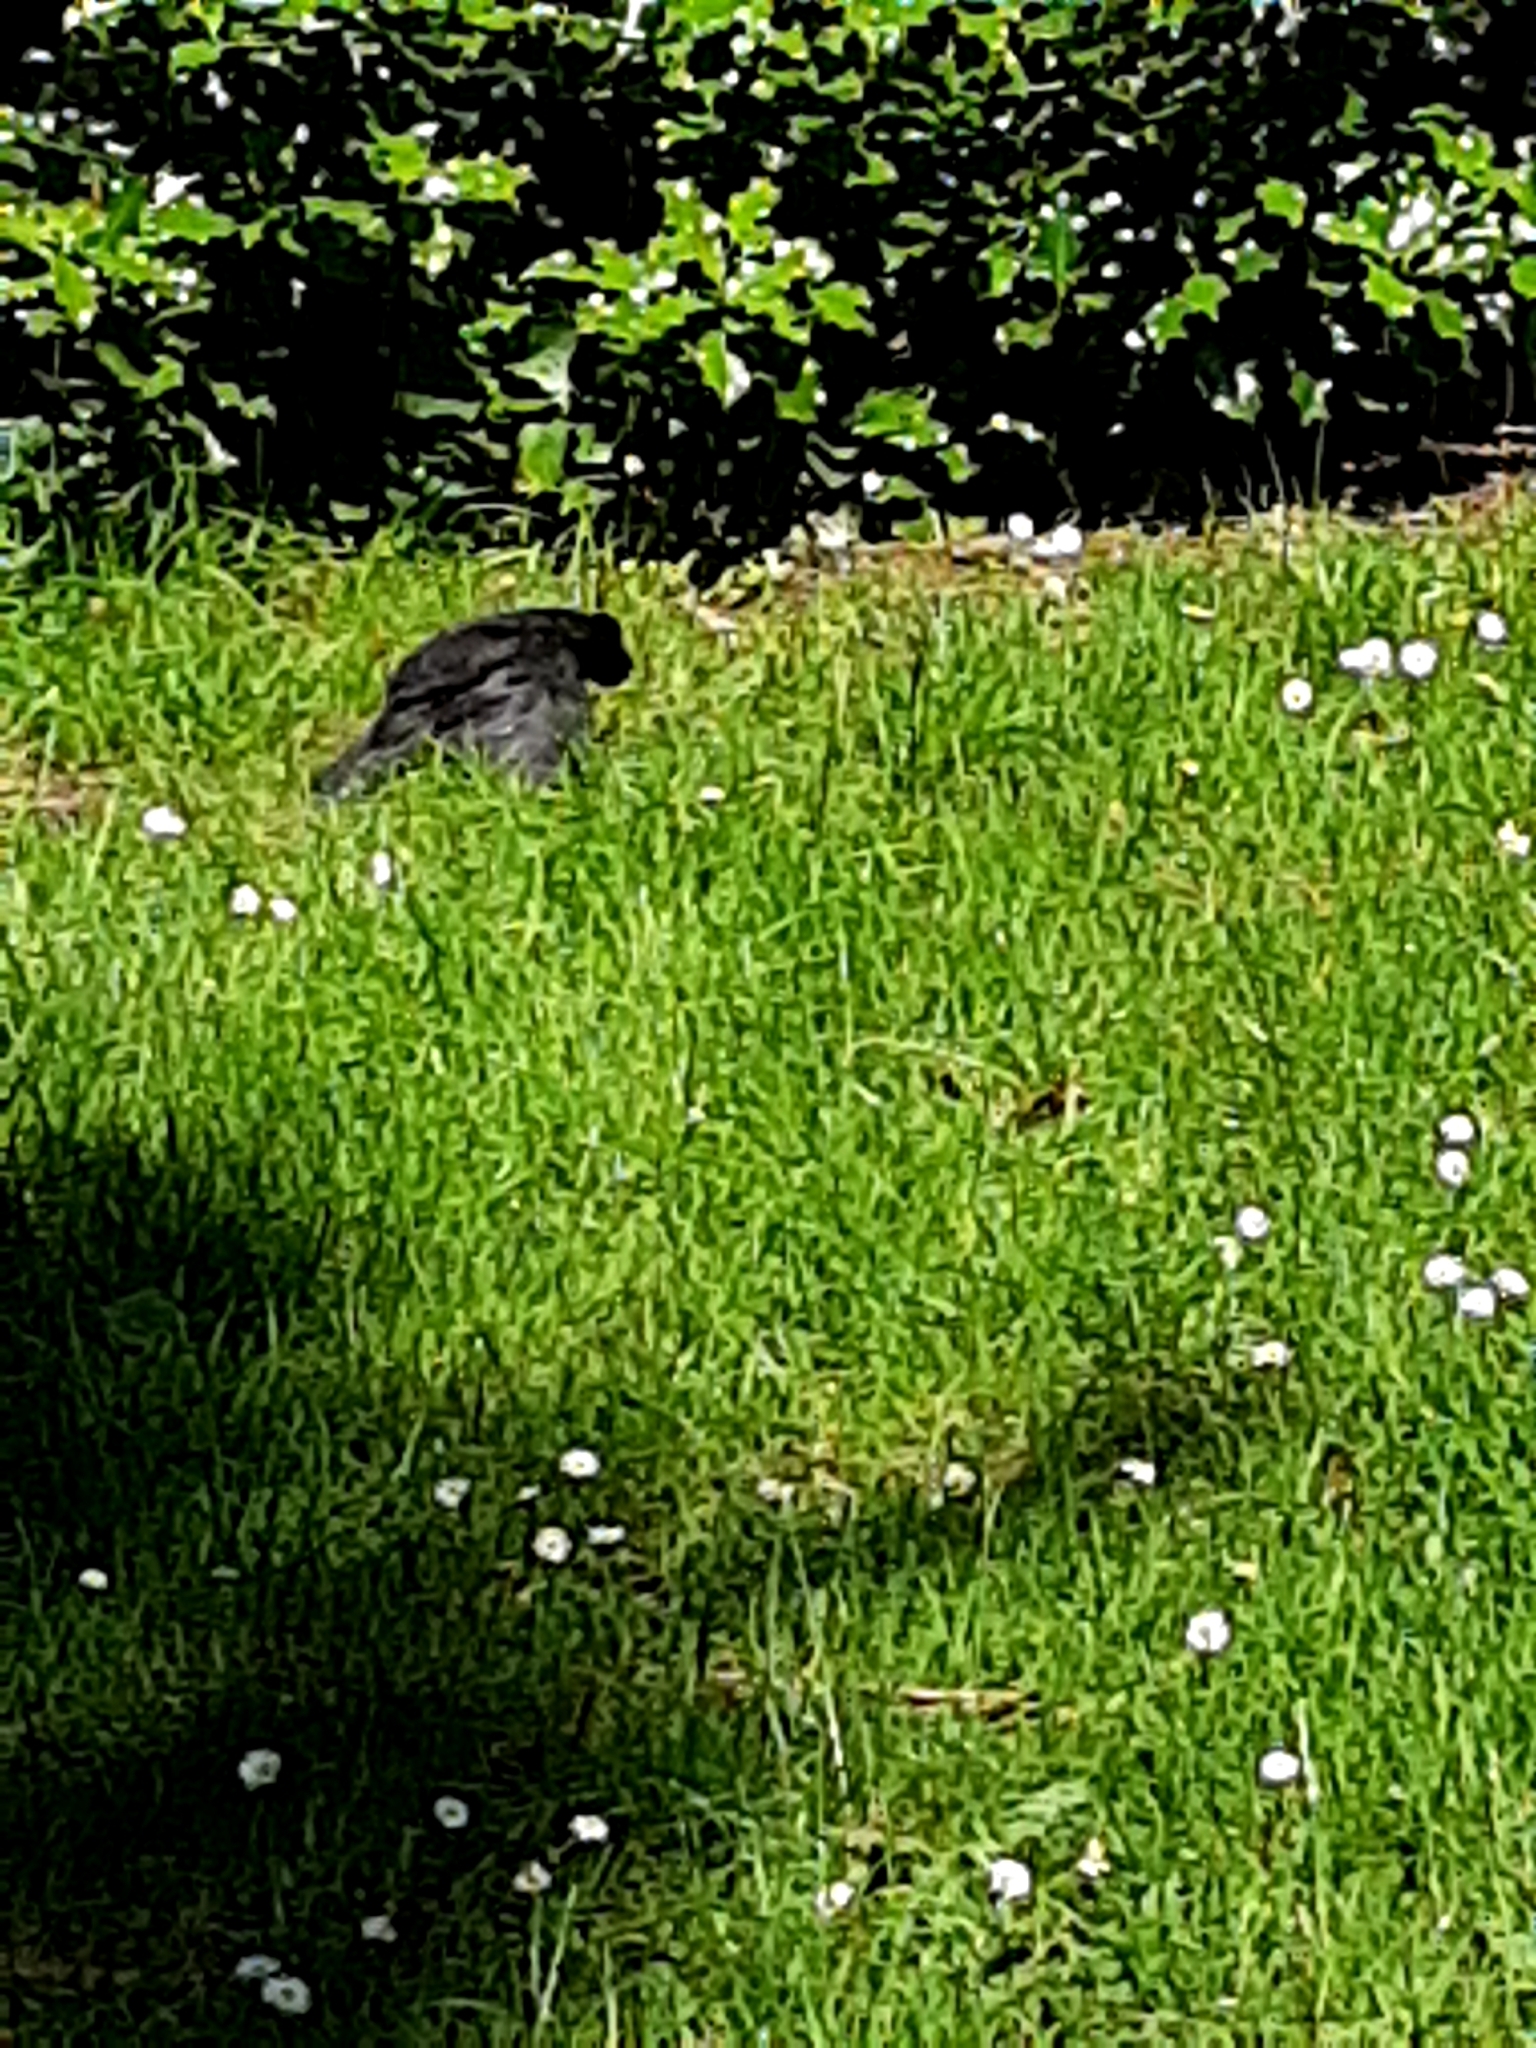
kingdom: Animalia
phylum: Chordata
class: Aves
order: Passeriformes
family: Turdidae
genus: Turdus
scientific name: Turdus merula
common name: Common blackbird
